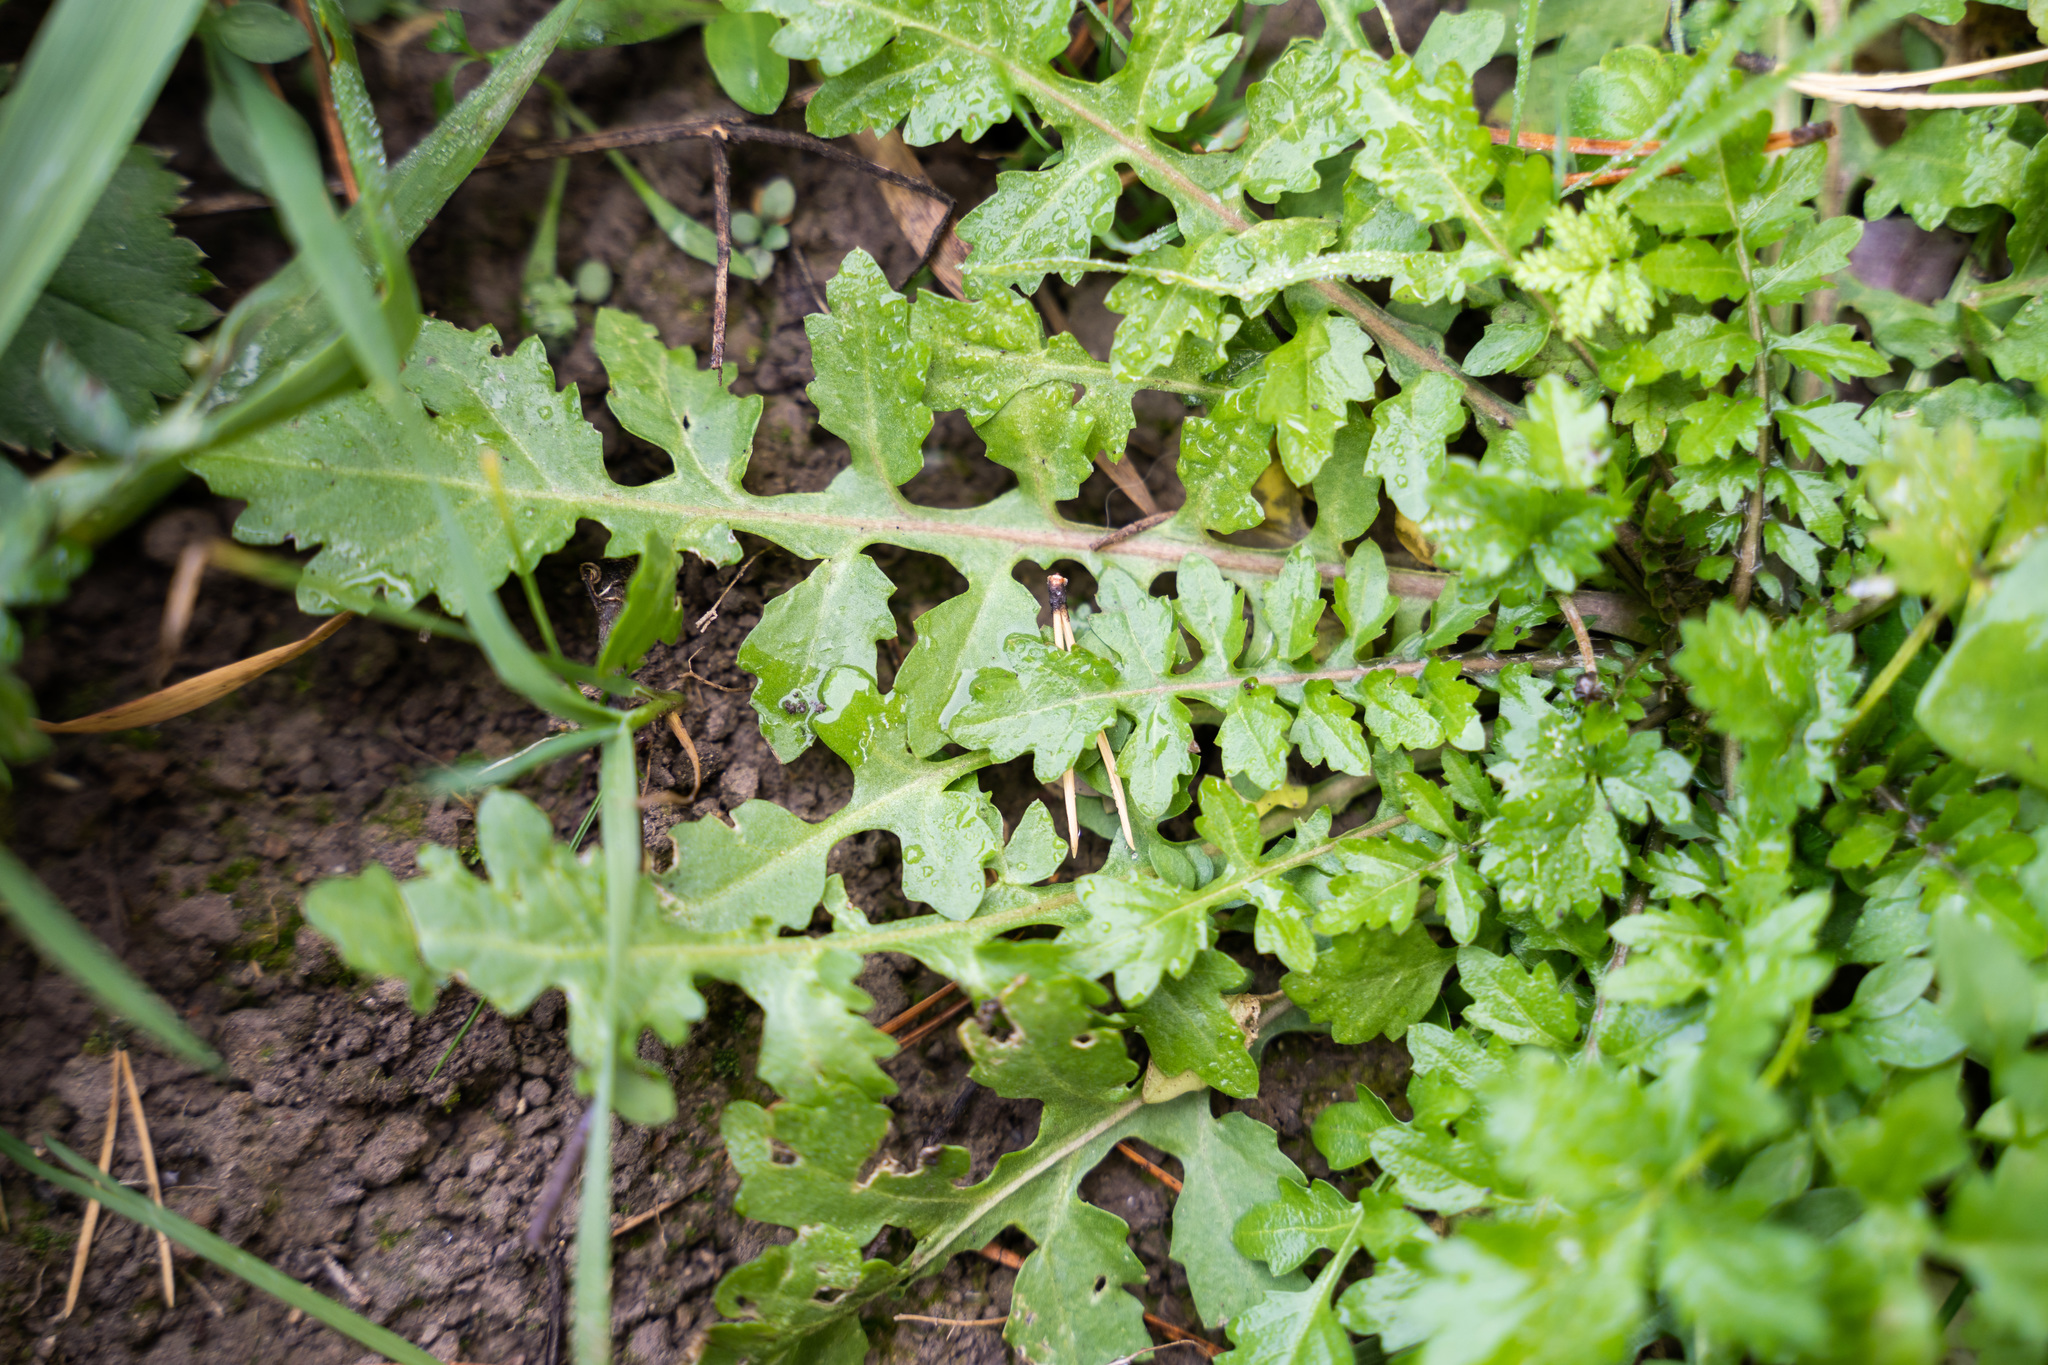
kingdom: Plantae
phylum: Tracheophyta
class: Magnoliopsida
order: Brassicales
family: Brassicaceae
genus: Rorippa
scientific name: Rorippa palustris
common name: Marsh yellow-cress
